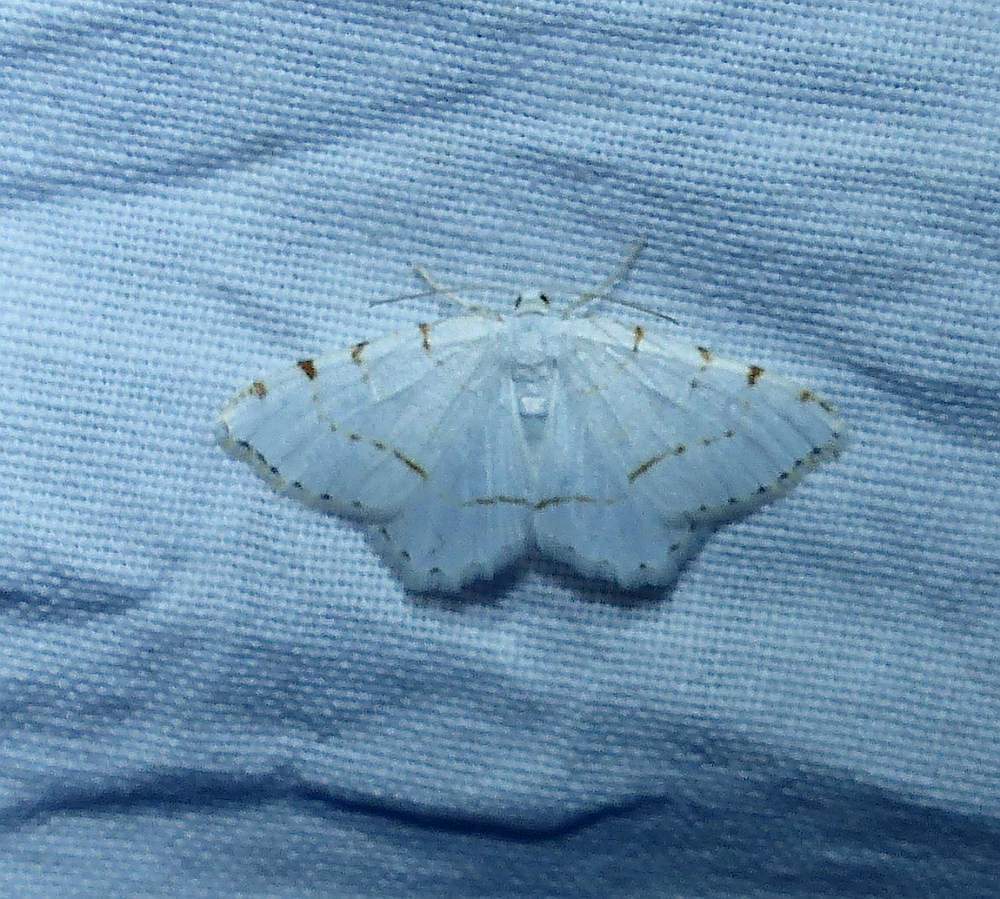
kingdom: Animalia
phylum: Arthropoda
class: Insecta
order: Lepidoptera
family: Geometridae
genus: Macaria
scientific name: Macaria pustularia
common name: Lesser maple spanworm moth
